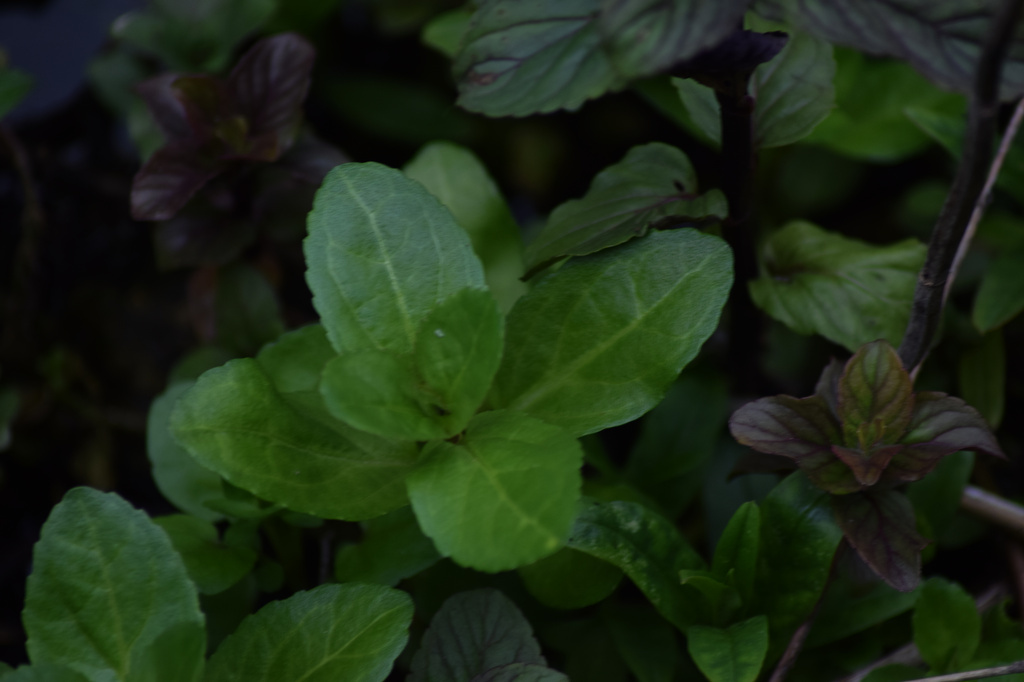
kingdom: Plantae
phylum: Tracheophyta
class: Magnoliopsida
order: Lamiales
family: Plantaginaceae
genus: Veronica
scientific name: Veronica beccabunga
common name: Brooklime
